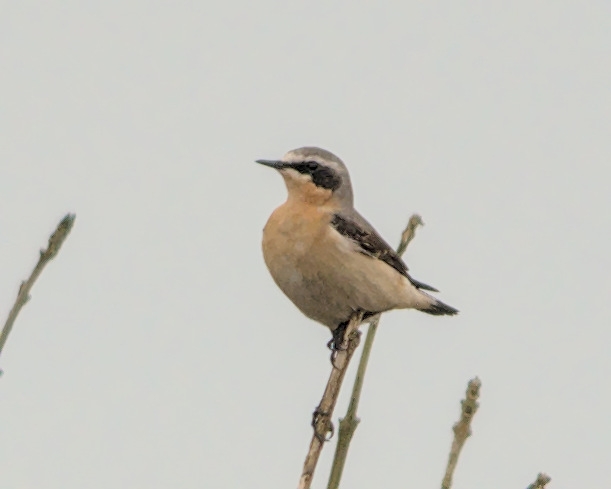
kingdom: Animalia
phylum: Chordata
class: Aves
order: Passeriformes
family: Muscicapidae
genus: Oenanthe
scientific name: Oenanthe oenanthe
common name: Northern wheatear
